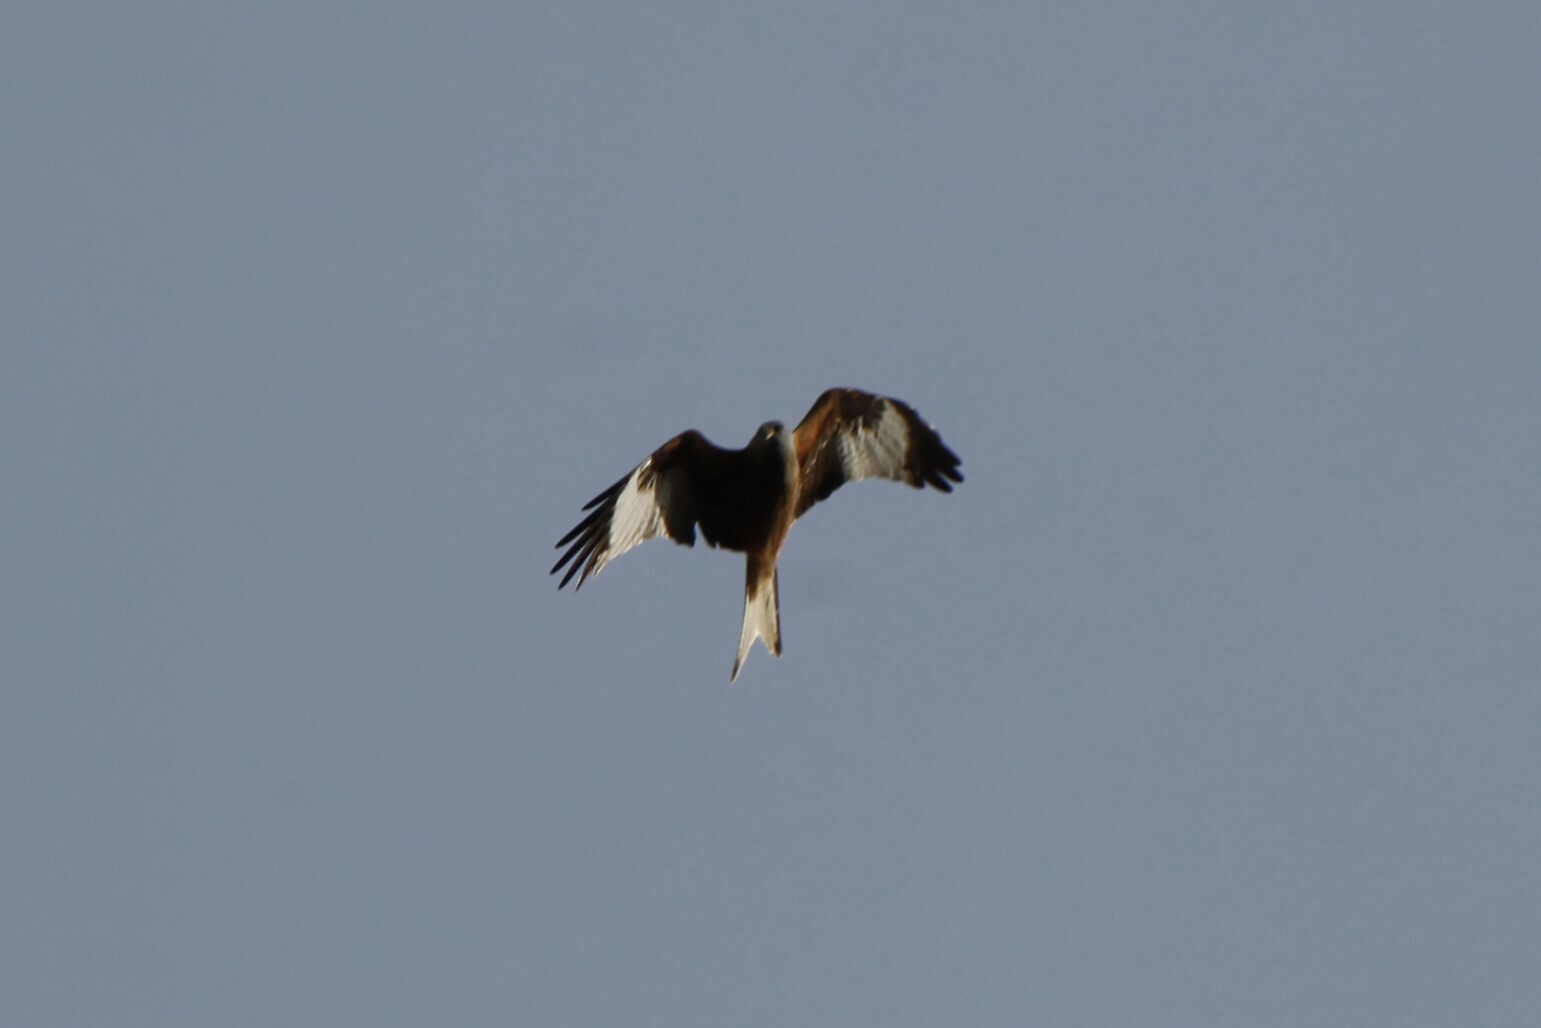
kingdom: Animalia
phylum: Chordata
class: Aves
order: Accipitriformes
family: Accipitridae
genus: Milvus
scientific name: Milvus milvus
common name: Red kite
